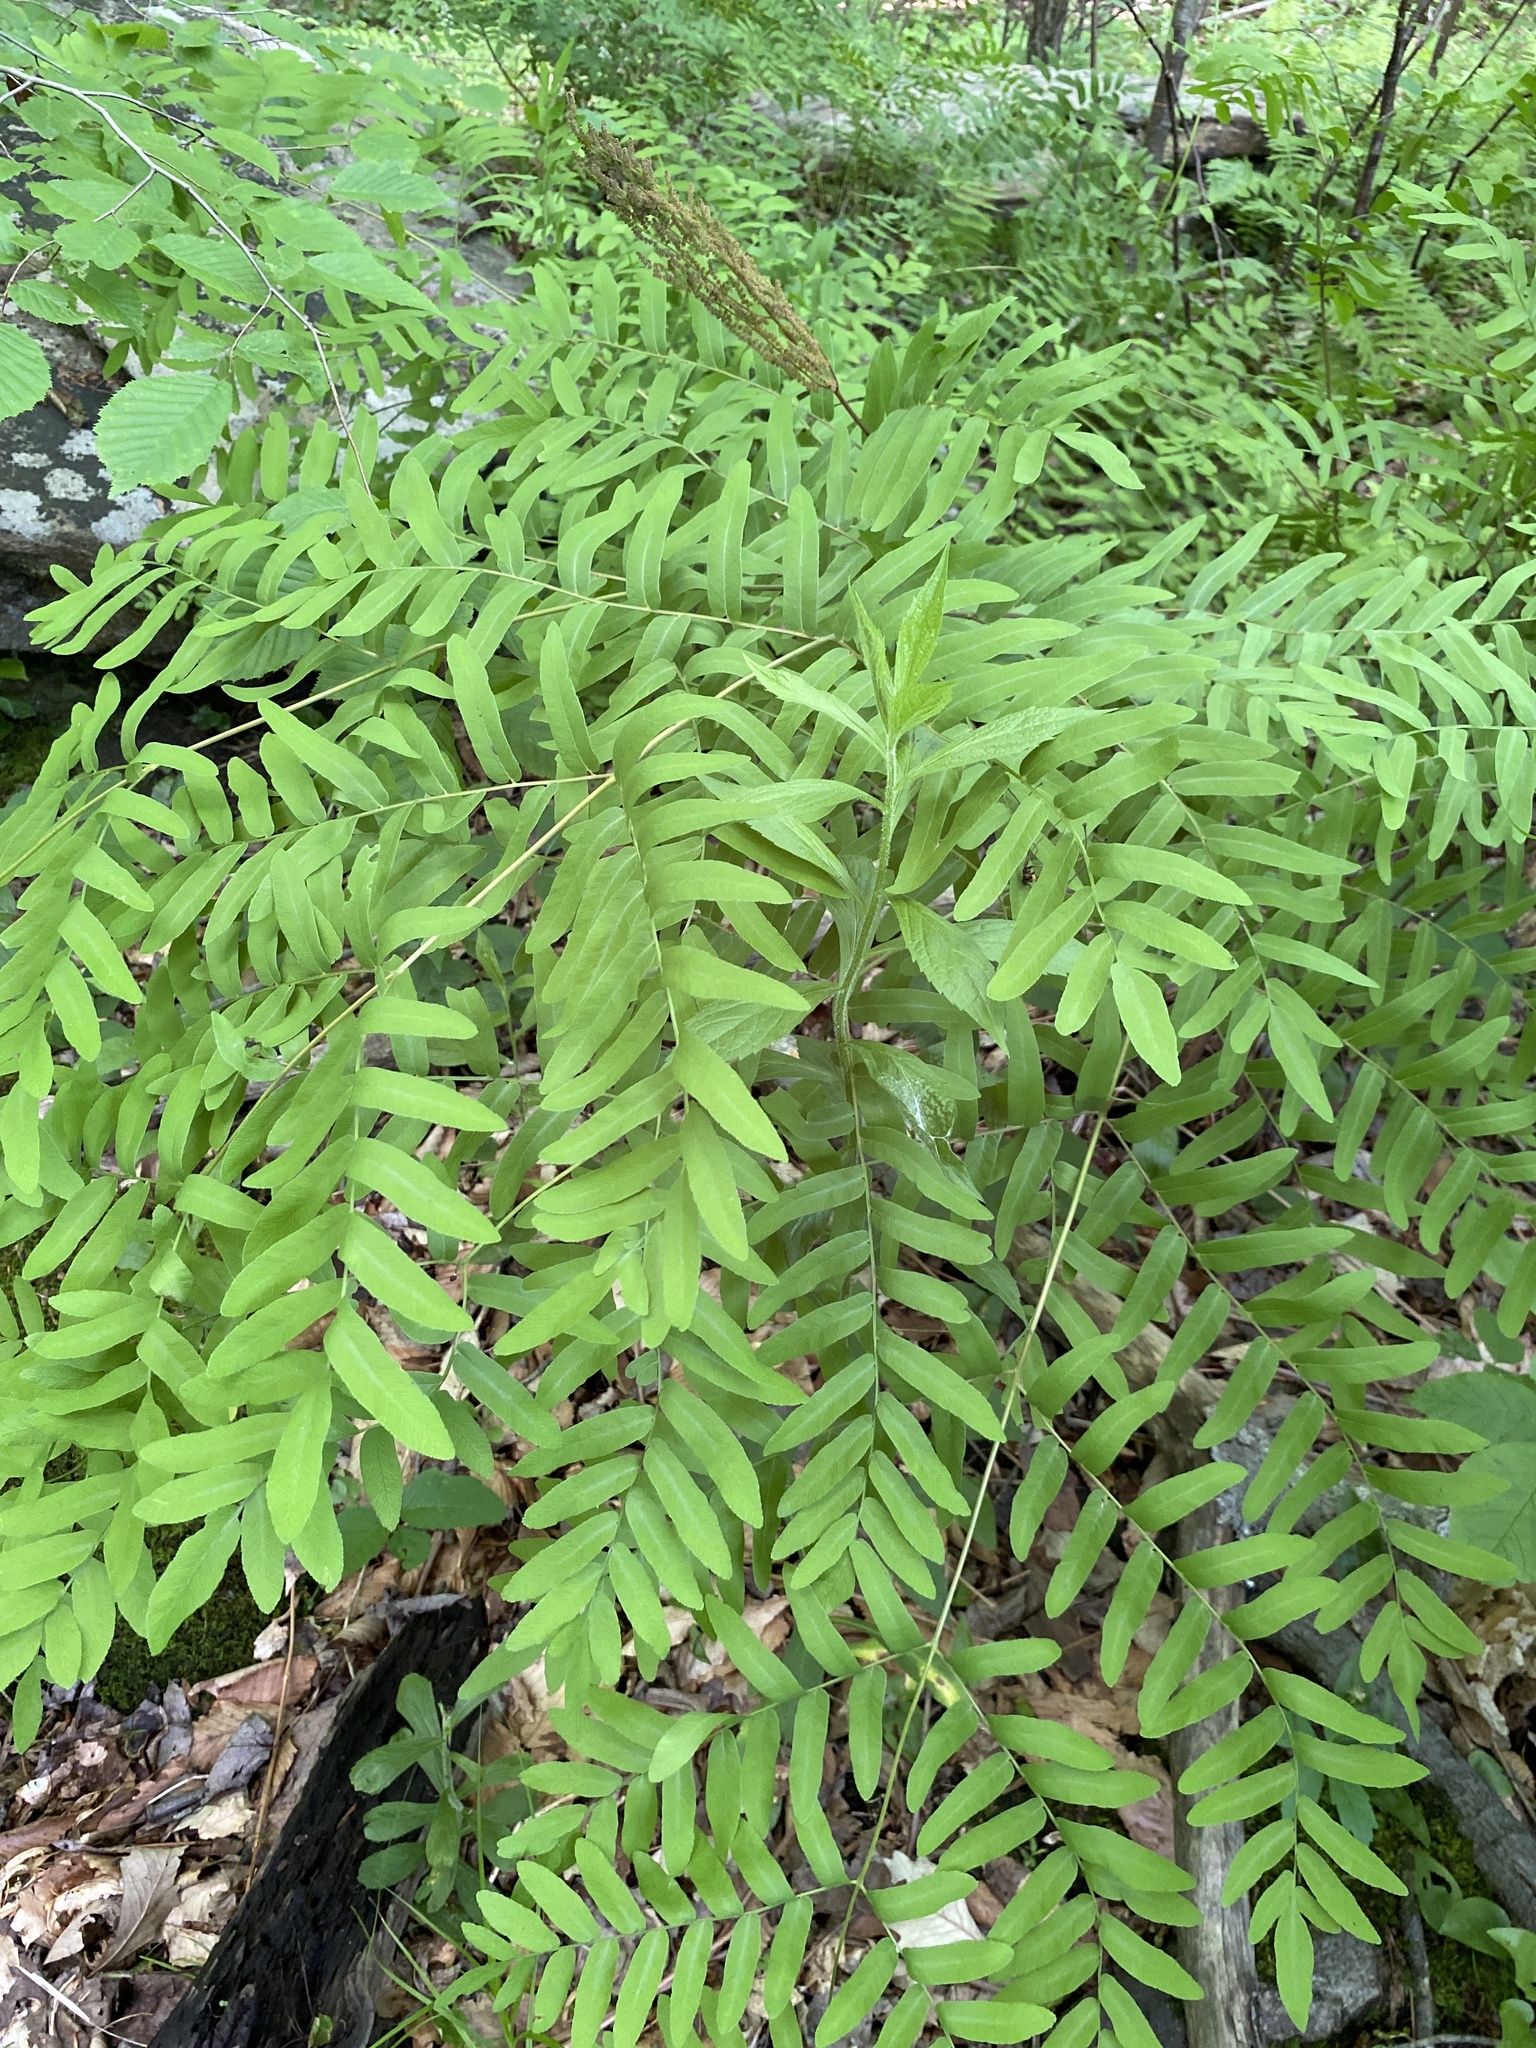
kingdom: Plantae
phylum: Tracheophyta
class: Polypodiopsida
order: Osmundales
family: Osmundaceae
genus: Osmunda
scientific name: Osmunda spectabilis
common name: American royal fern
